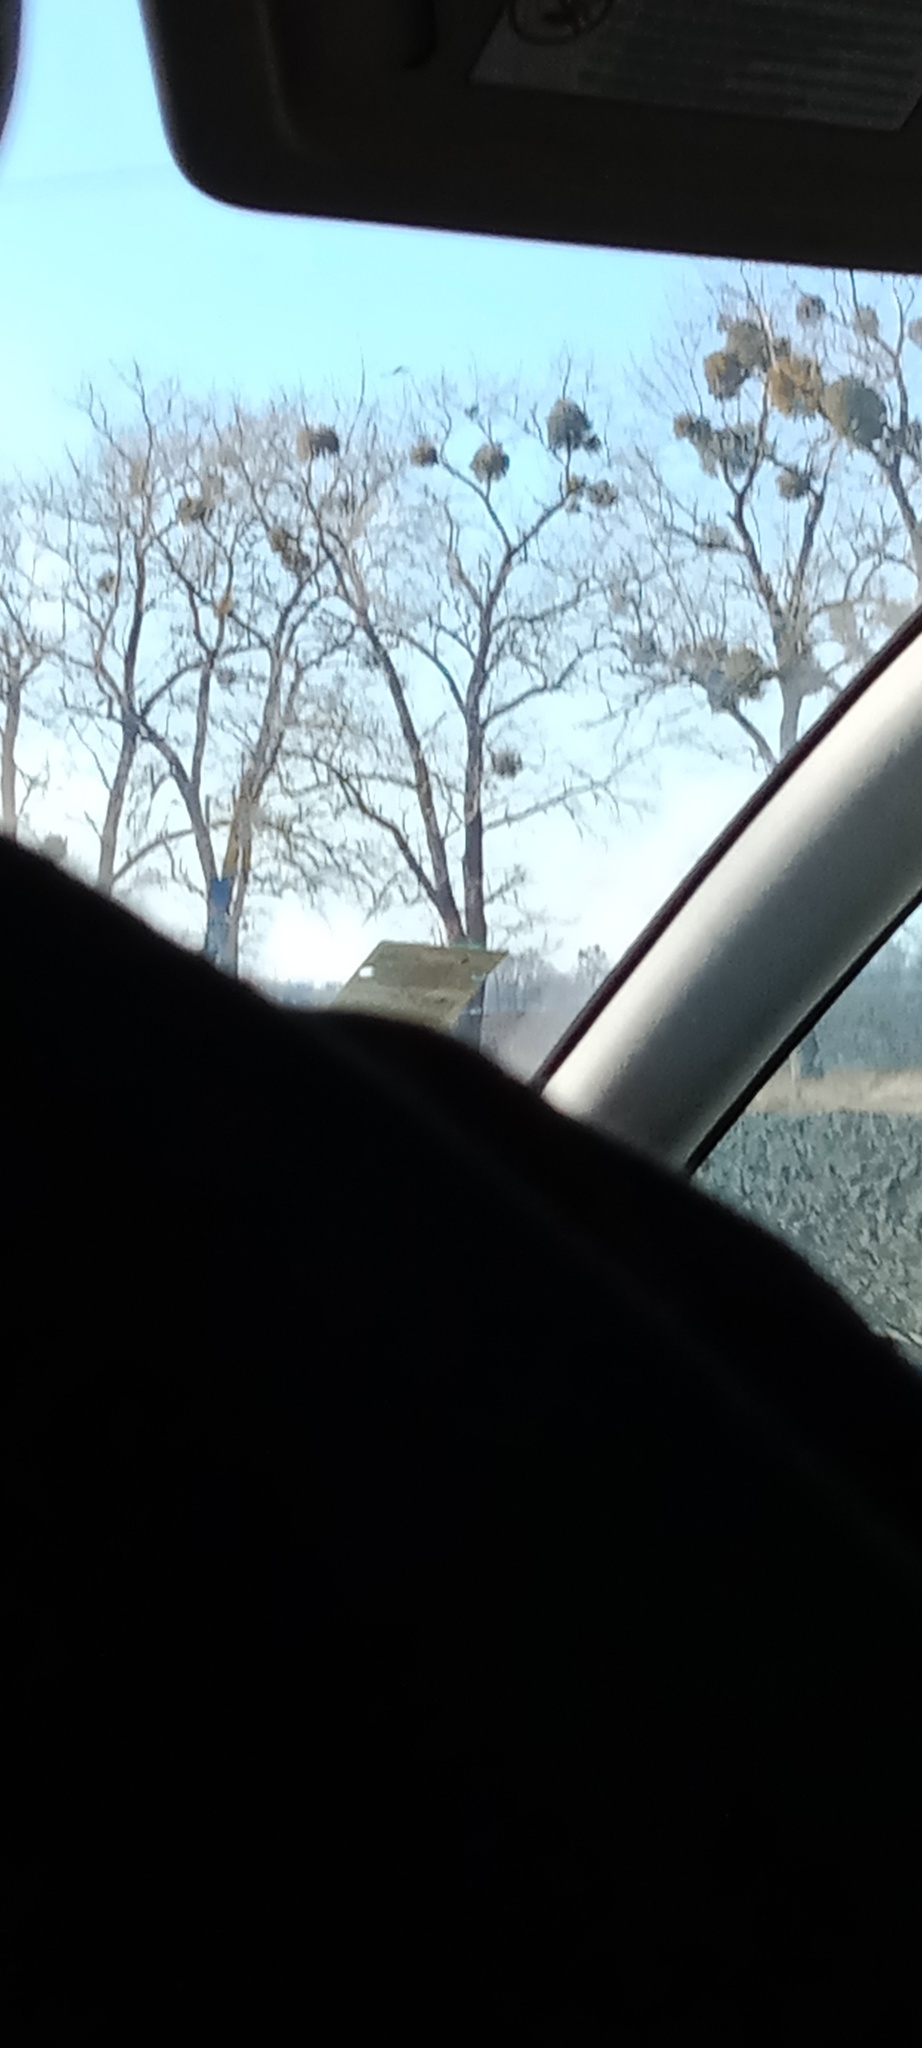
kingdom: Plantae
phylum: Tracheophyta
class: Magnoliopsida
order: Santalales
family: Viscaceae
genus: Viscum
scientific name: Viscum album
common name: Mistletoe
